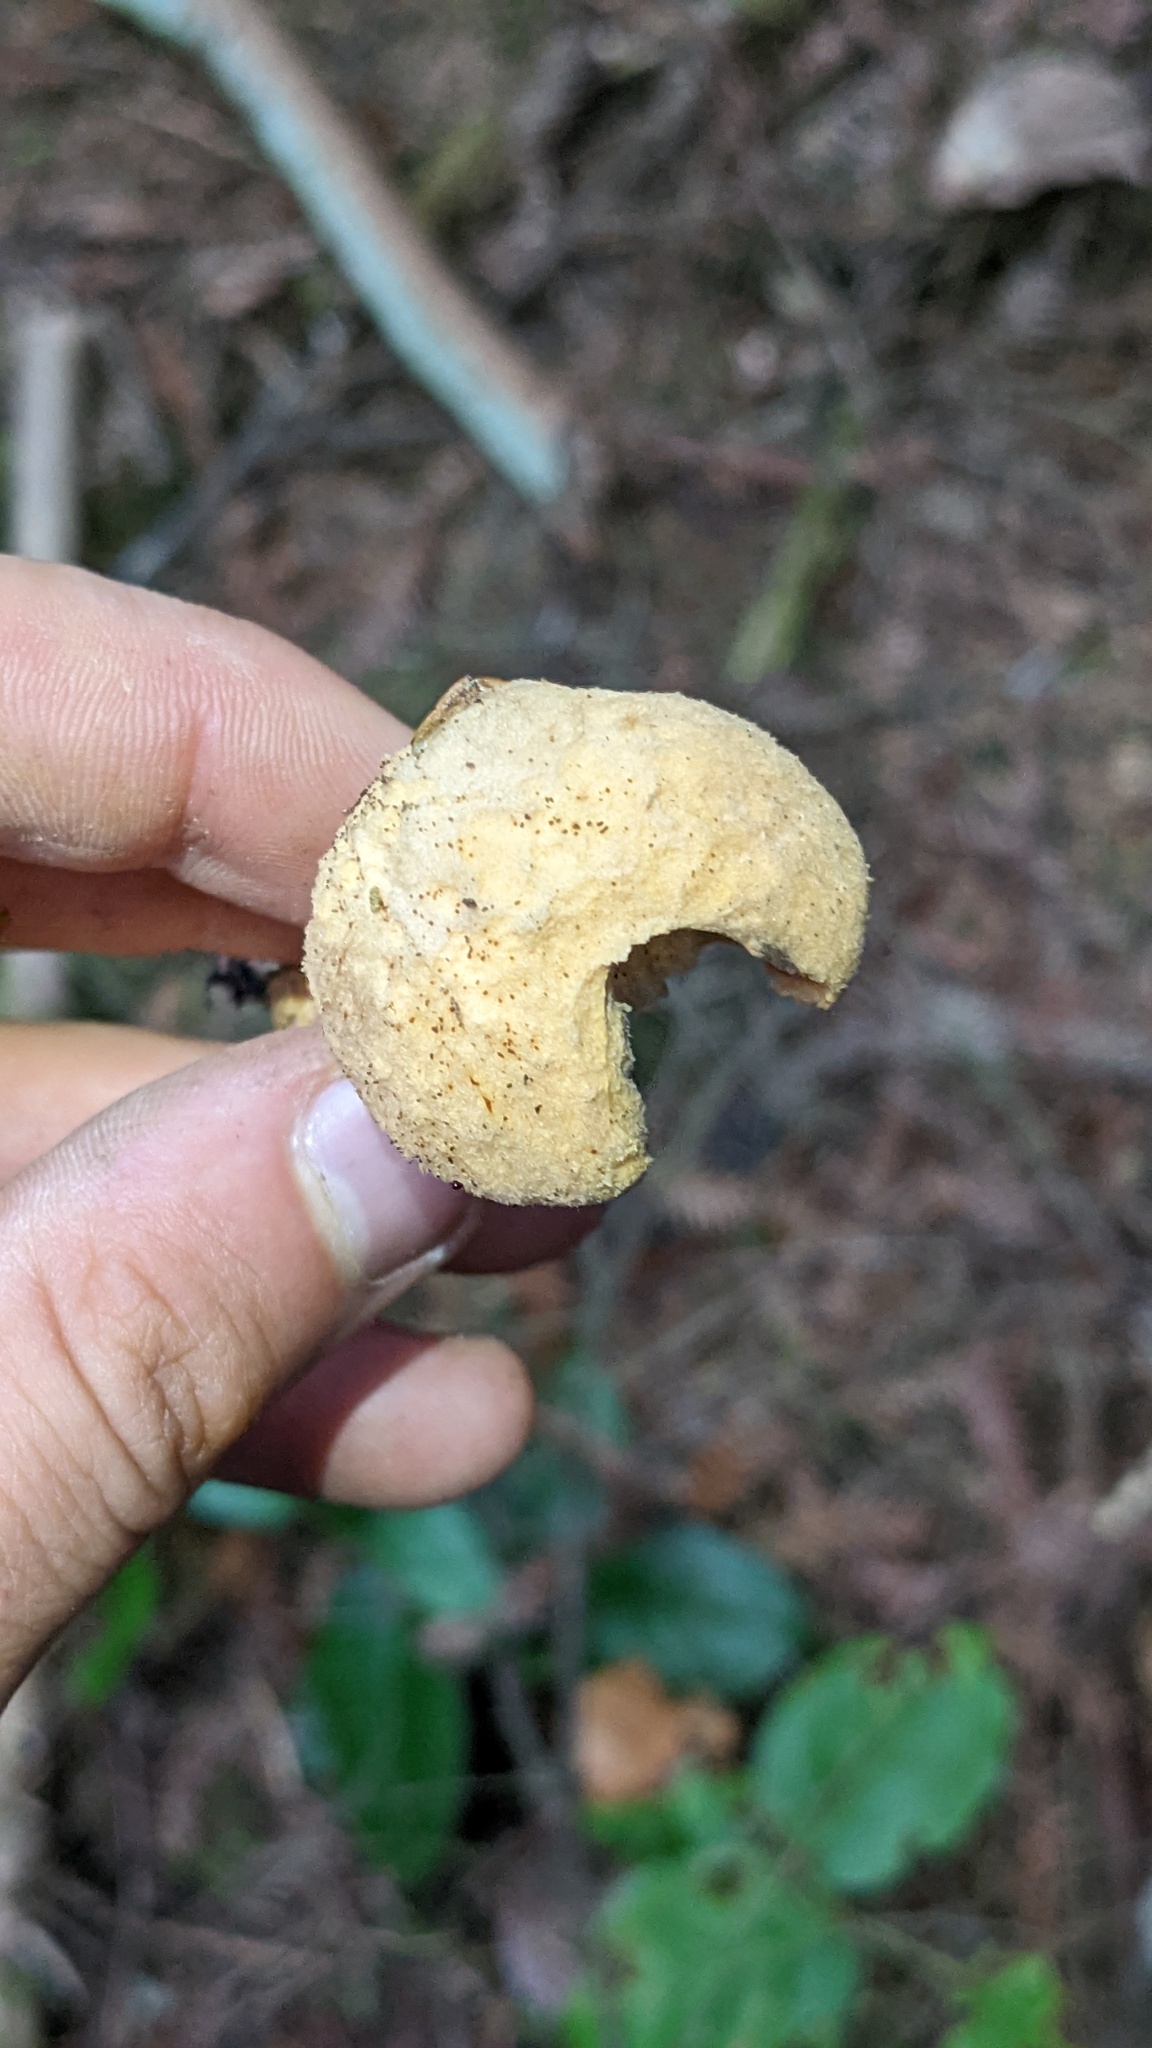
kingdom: Fungi
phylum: Basidiomycota
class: Agaricomycetes
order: Boletales
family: Gomphidiaceae
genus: Chroogomphus
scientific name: Chroogomphus tomentosus
